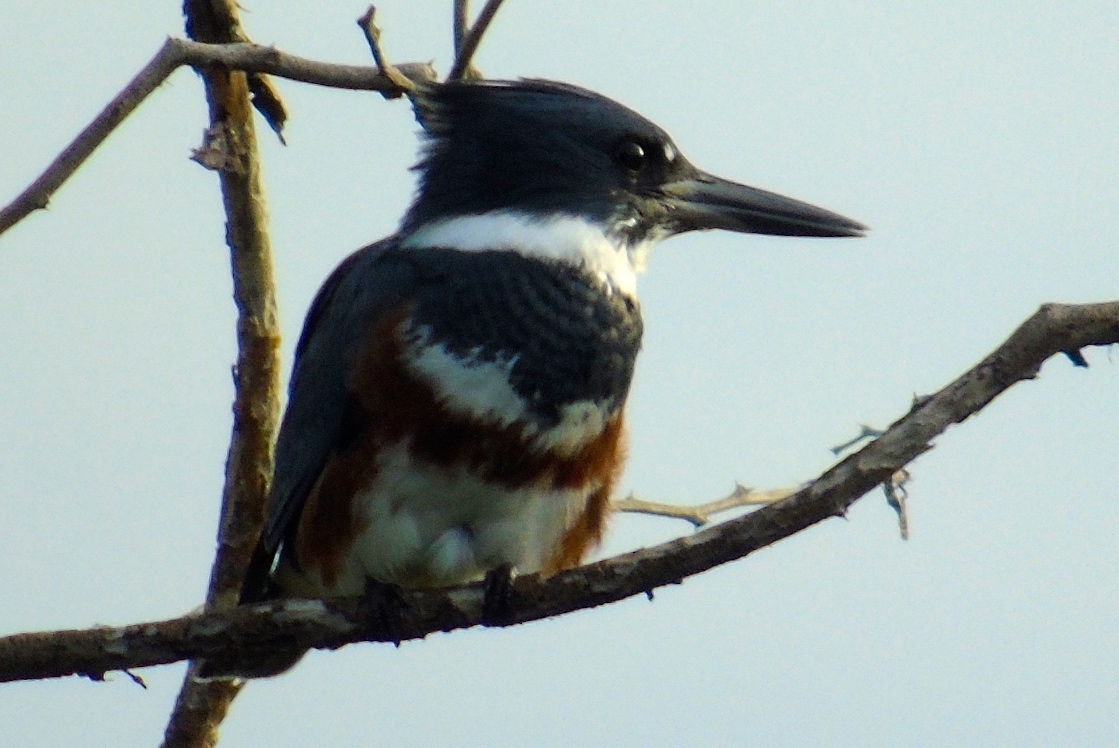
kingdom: Animalia
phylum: Chordata
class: Aves
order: Coraciiformes
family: Alcedinidae
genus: Megaceryle
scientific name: Megaceryle alcyon
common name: Belted kingfisher
